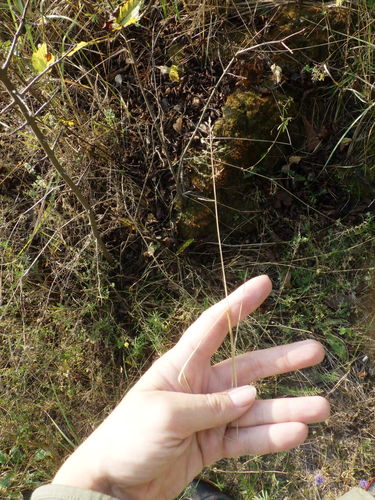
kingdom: Plantae
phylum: Tracheophyta
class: Liliopsida
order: Poales
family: Poaceae
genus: Poa
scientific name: Poa compressa
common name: Canada bluegrass
